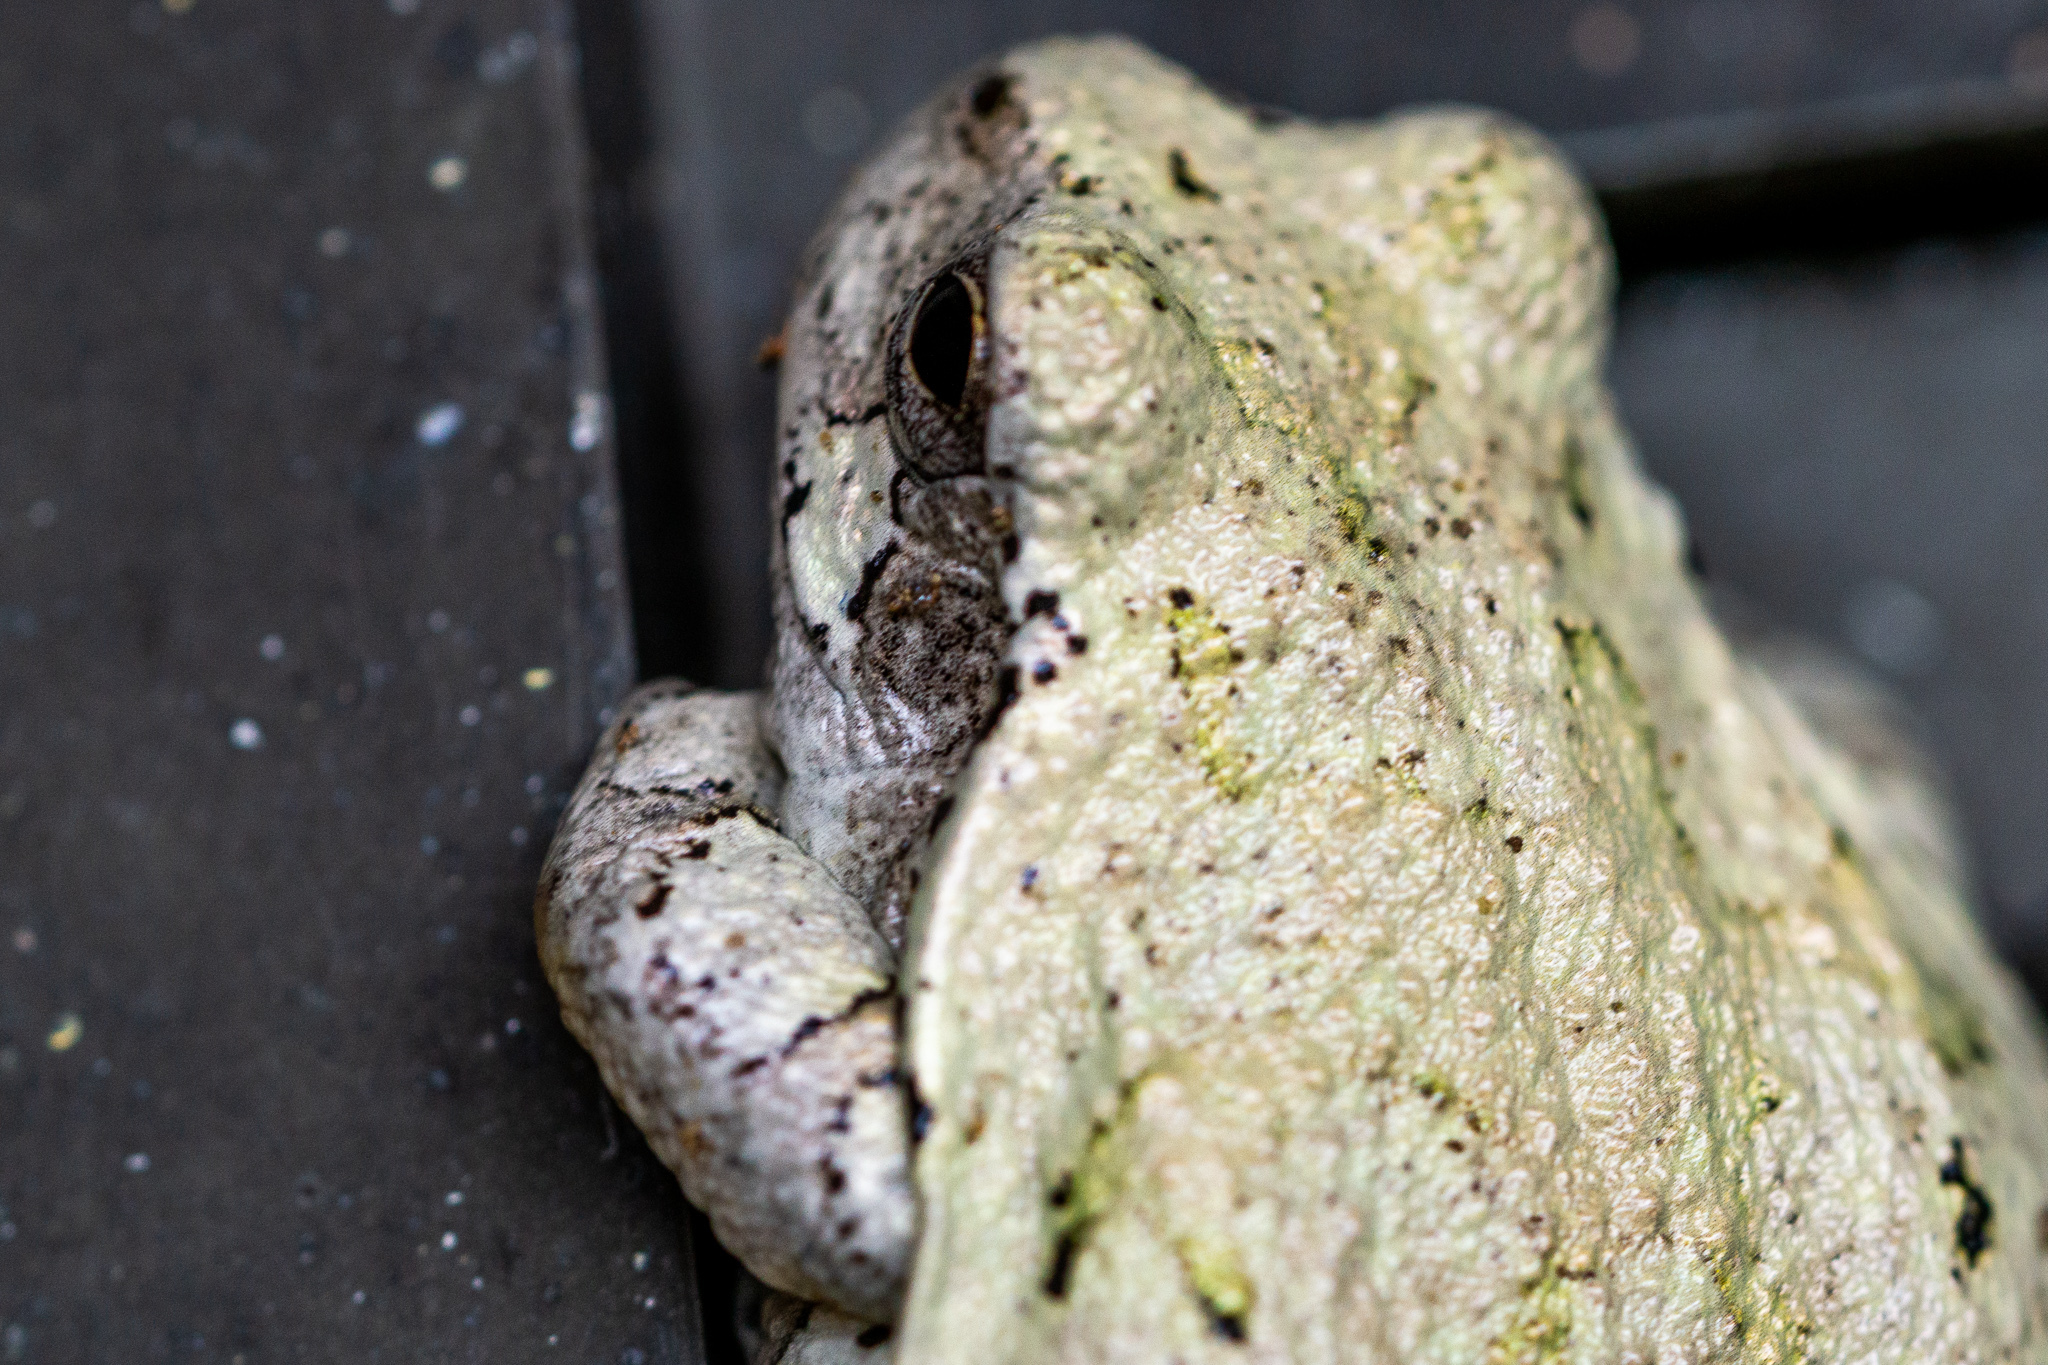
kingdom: Animalia
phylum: Chordata
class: Amphibia
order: Anura
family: Hylidae
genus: Dryophytes
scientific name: Dryophytes chrysoscelis
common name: Cope's gray treefrog
